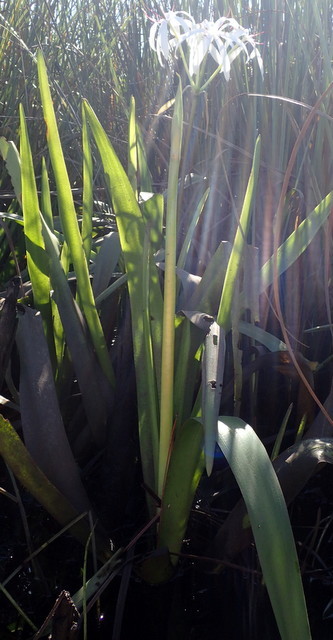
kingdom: Plantae
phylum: Tracheophyta
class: Liliopsida
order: Asparagales
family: Amaryllidaceae
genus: Crinum
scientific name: Crinum americanum
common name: Florida swamp-lily
